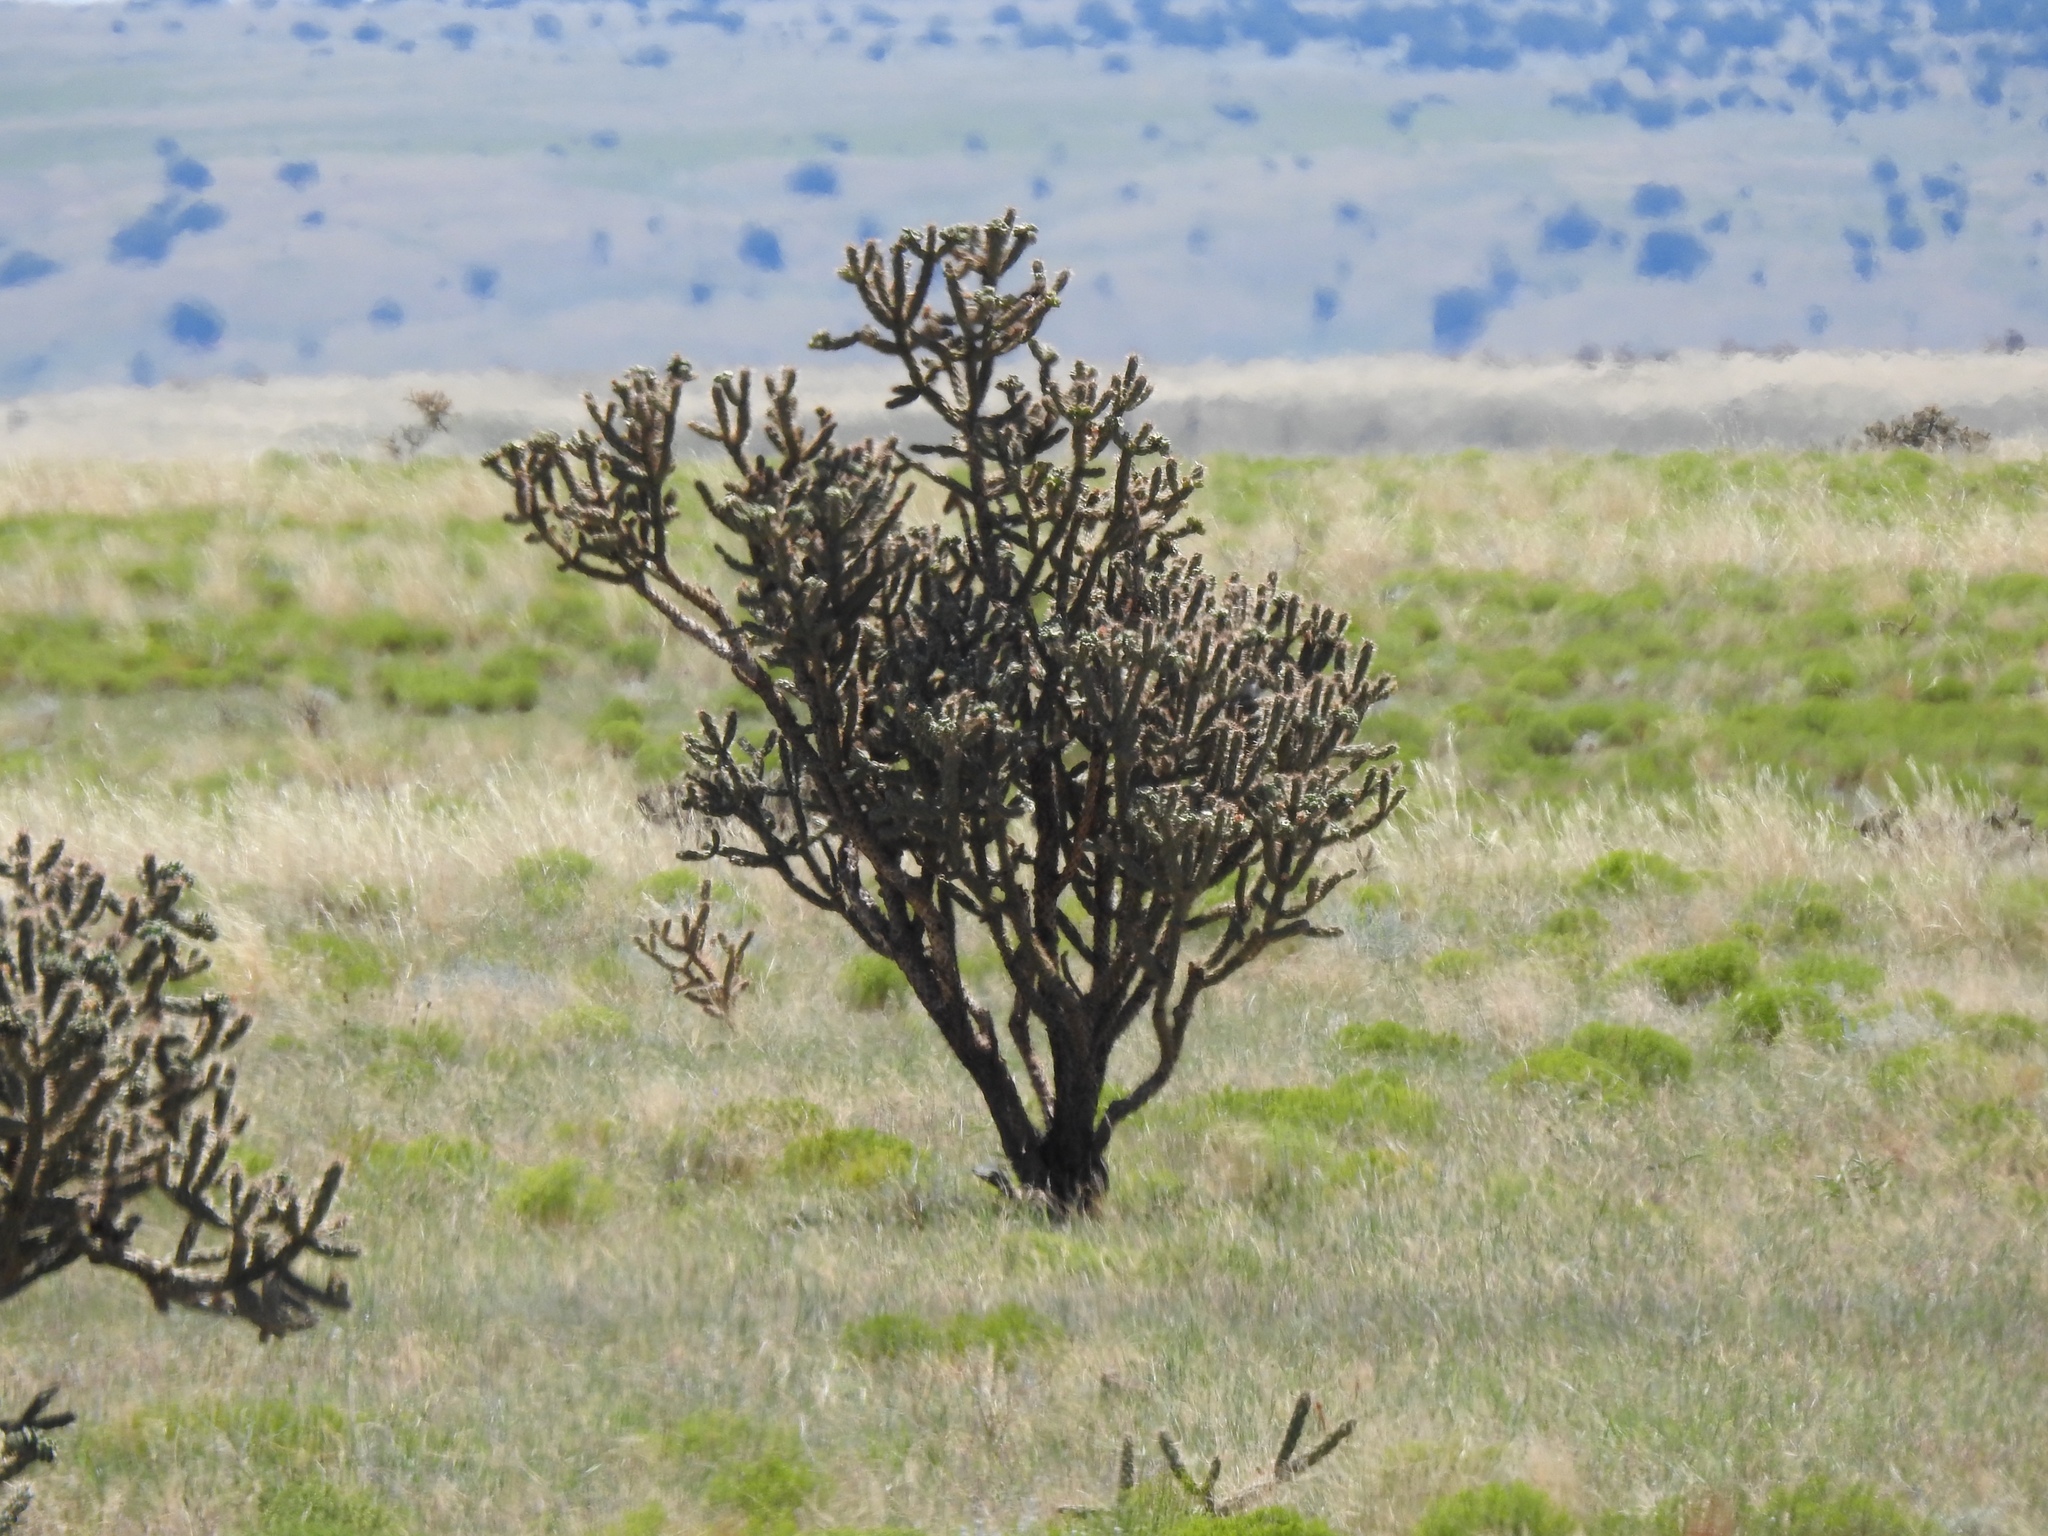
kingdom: Plantae
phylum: Tracheophyta
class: Magnoliopsida
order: Caryophyllales
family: Cactaceae
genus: Cylindropuntia
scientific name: Cylindropuntia imbricata
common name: Candelabrum cactus
